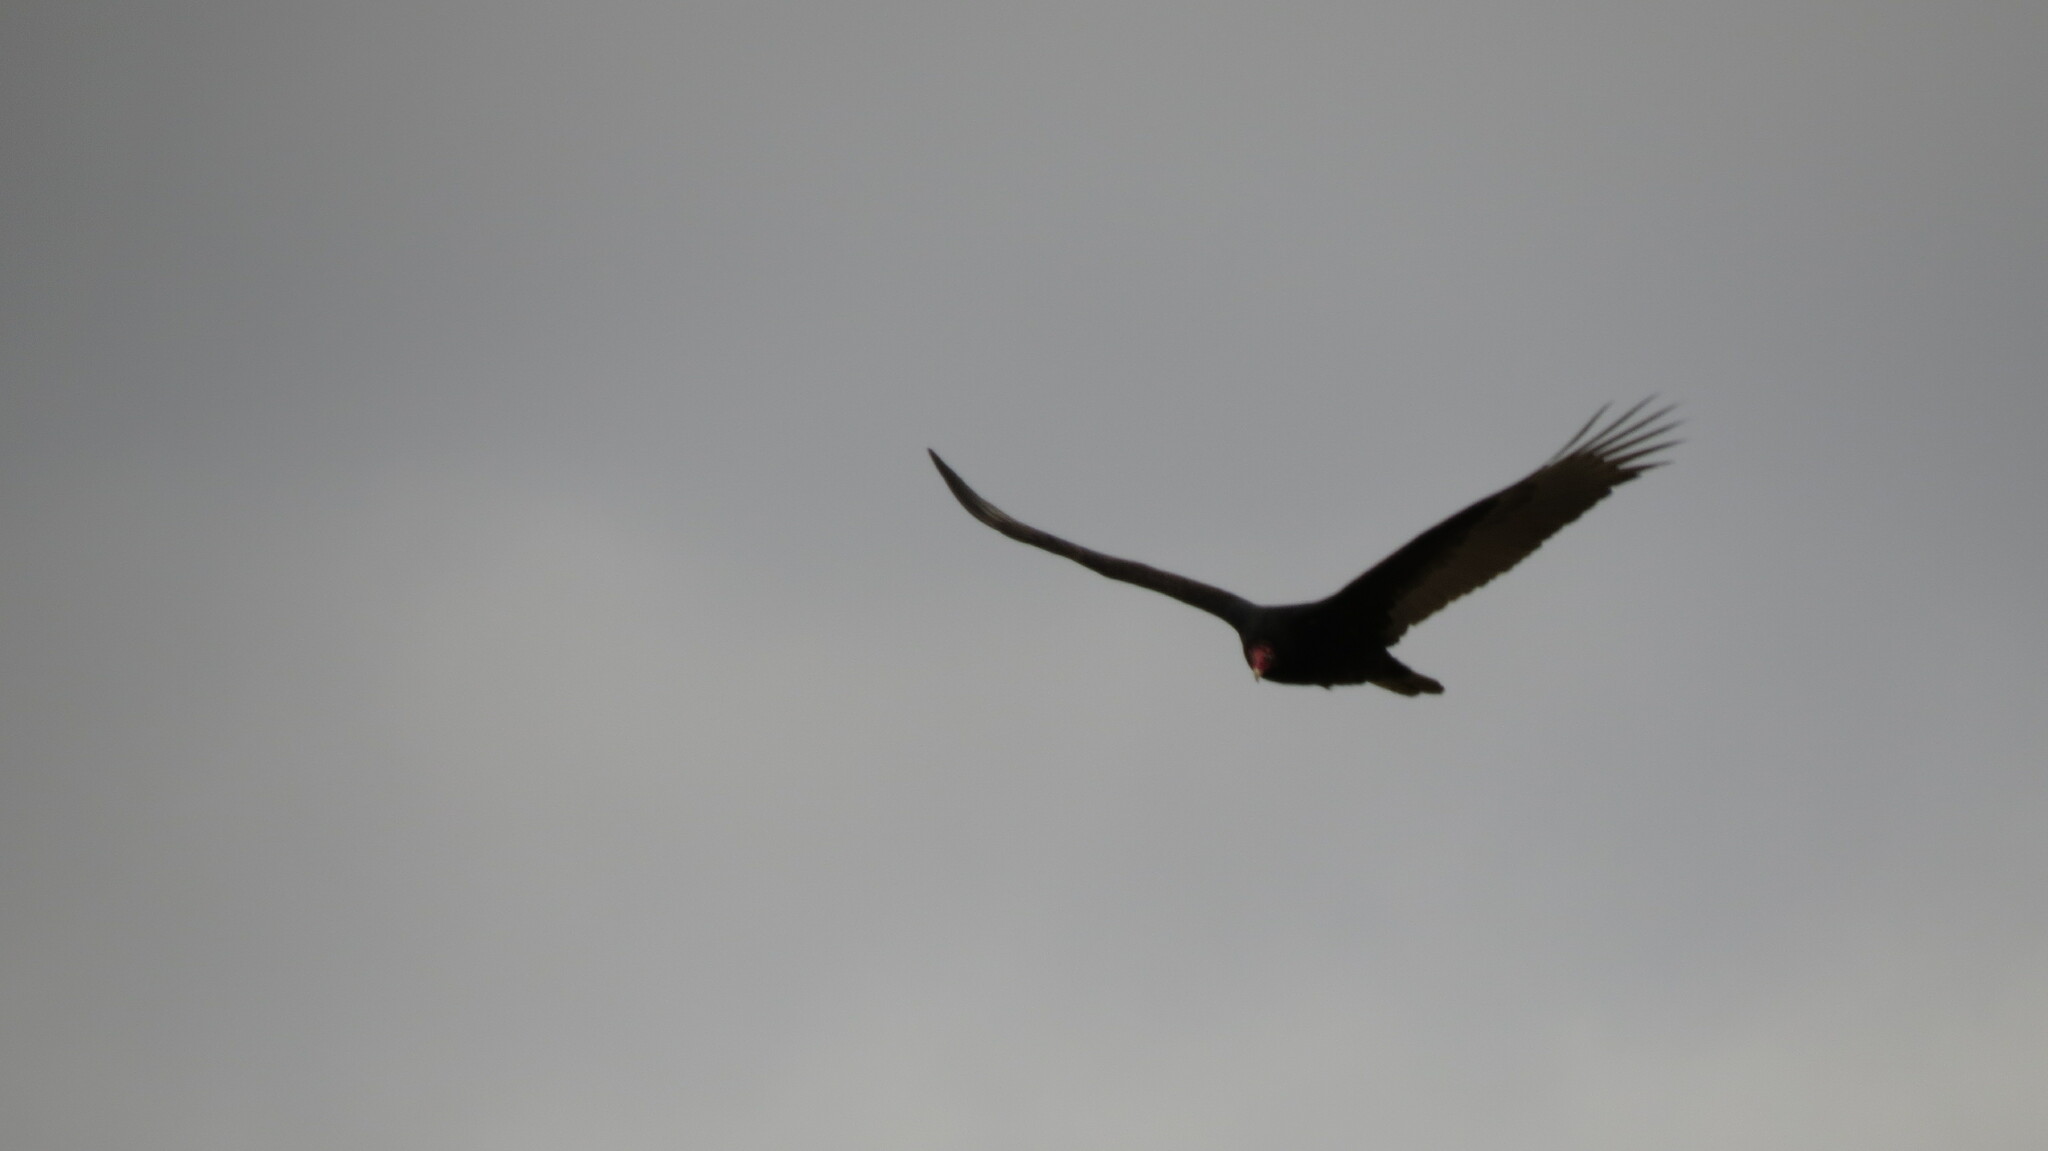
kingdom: Animalia
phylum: Chordata
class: Aves
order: Accipitriformes
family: Cathartidae
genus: Cathartes
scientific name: Cathartes aura
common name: Turkey vulture
